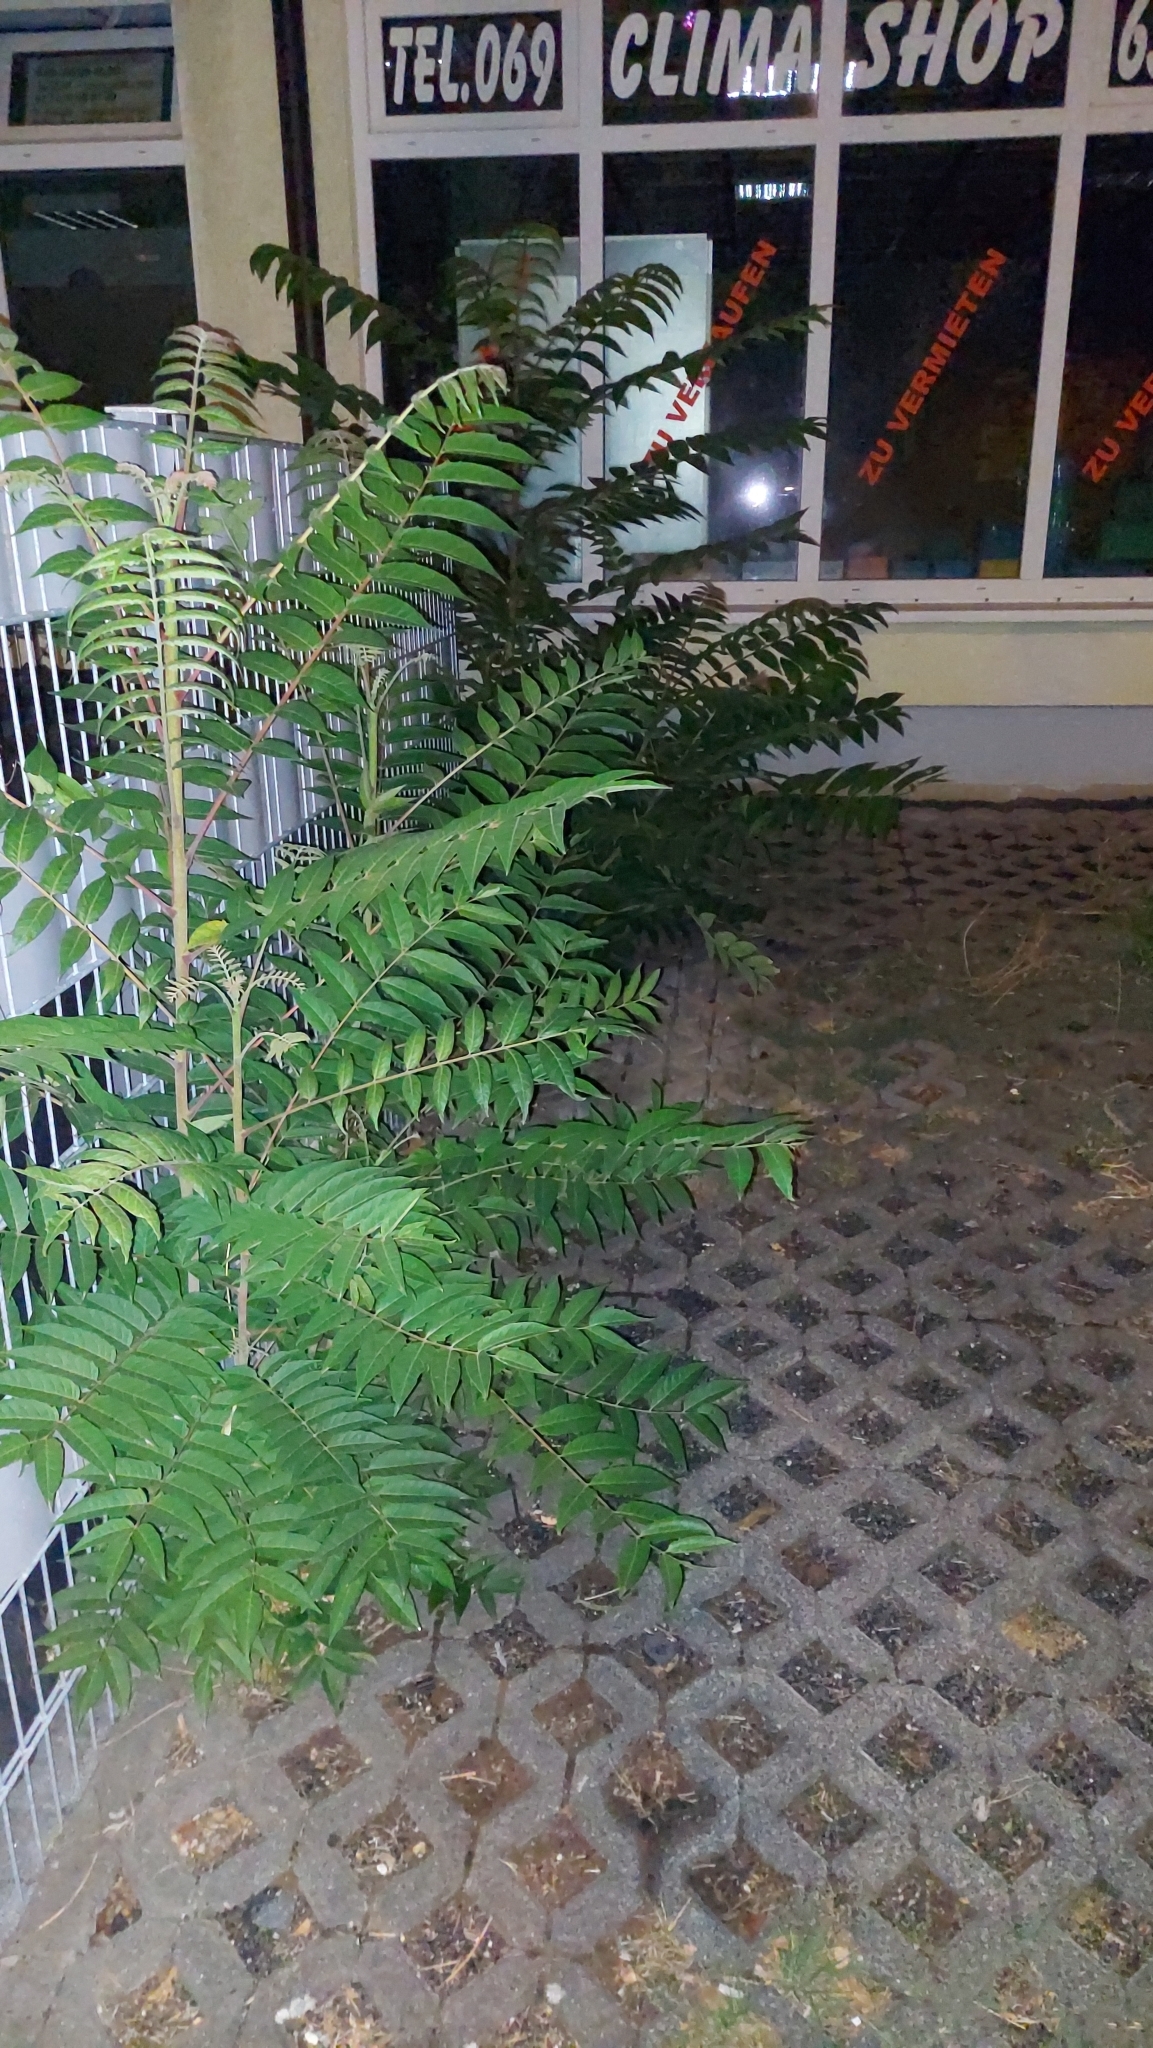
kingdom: Plantae
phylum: Tracheophyta
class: Magnoliopsida
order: Sapindales
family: Simaroubaceae
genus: Ailanthus
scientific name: Ailanthus altissima
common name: Tree-of-heaven
